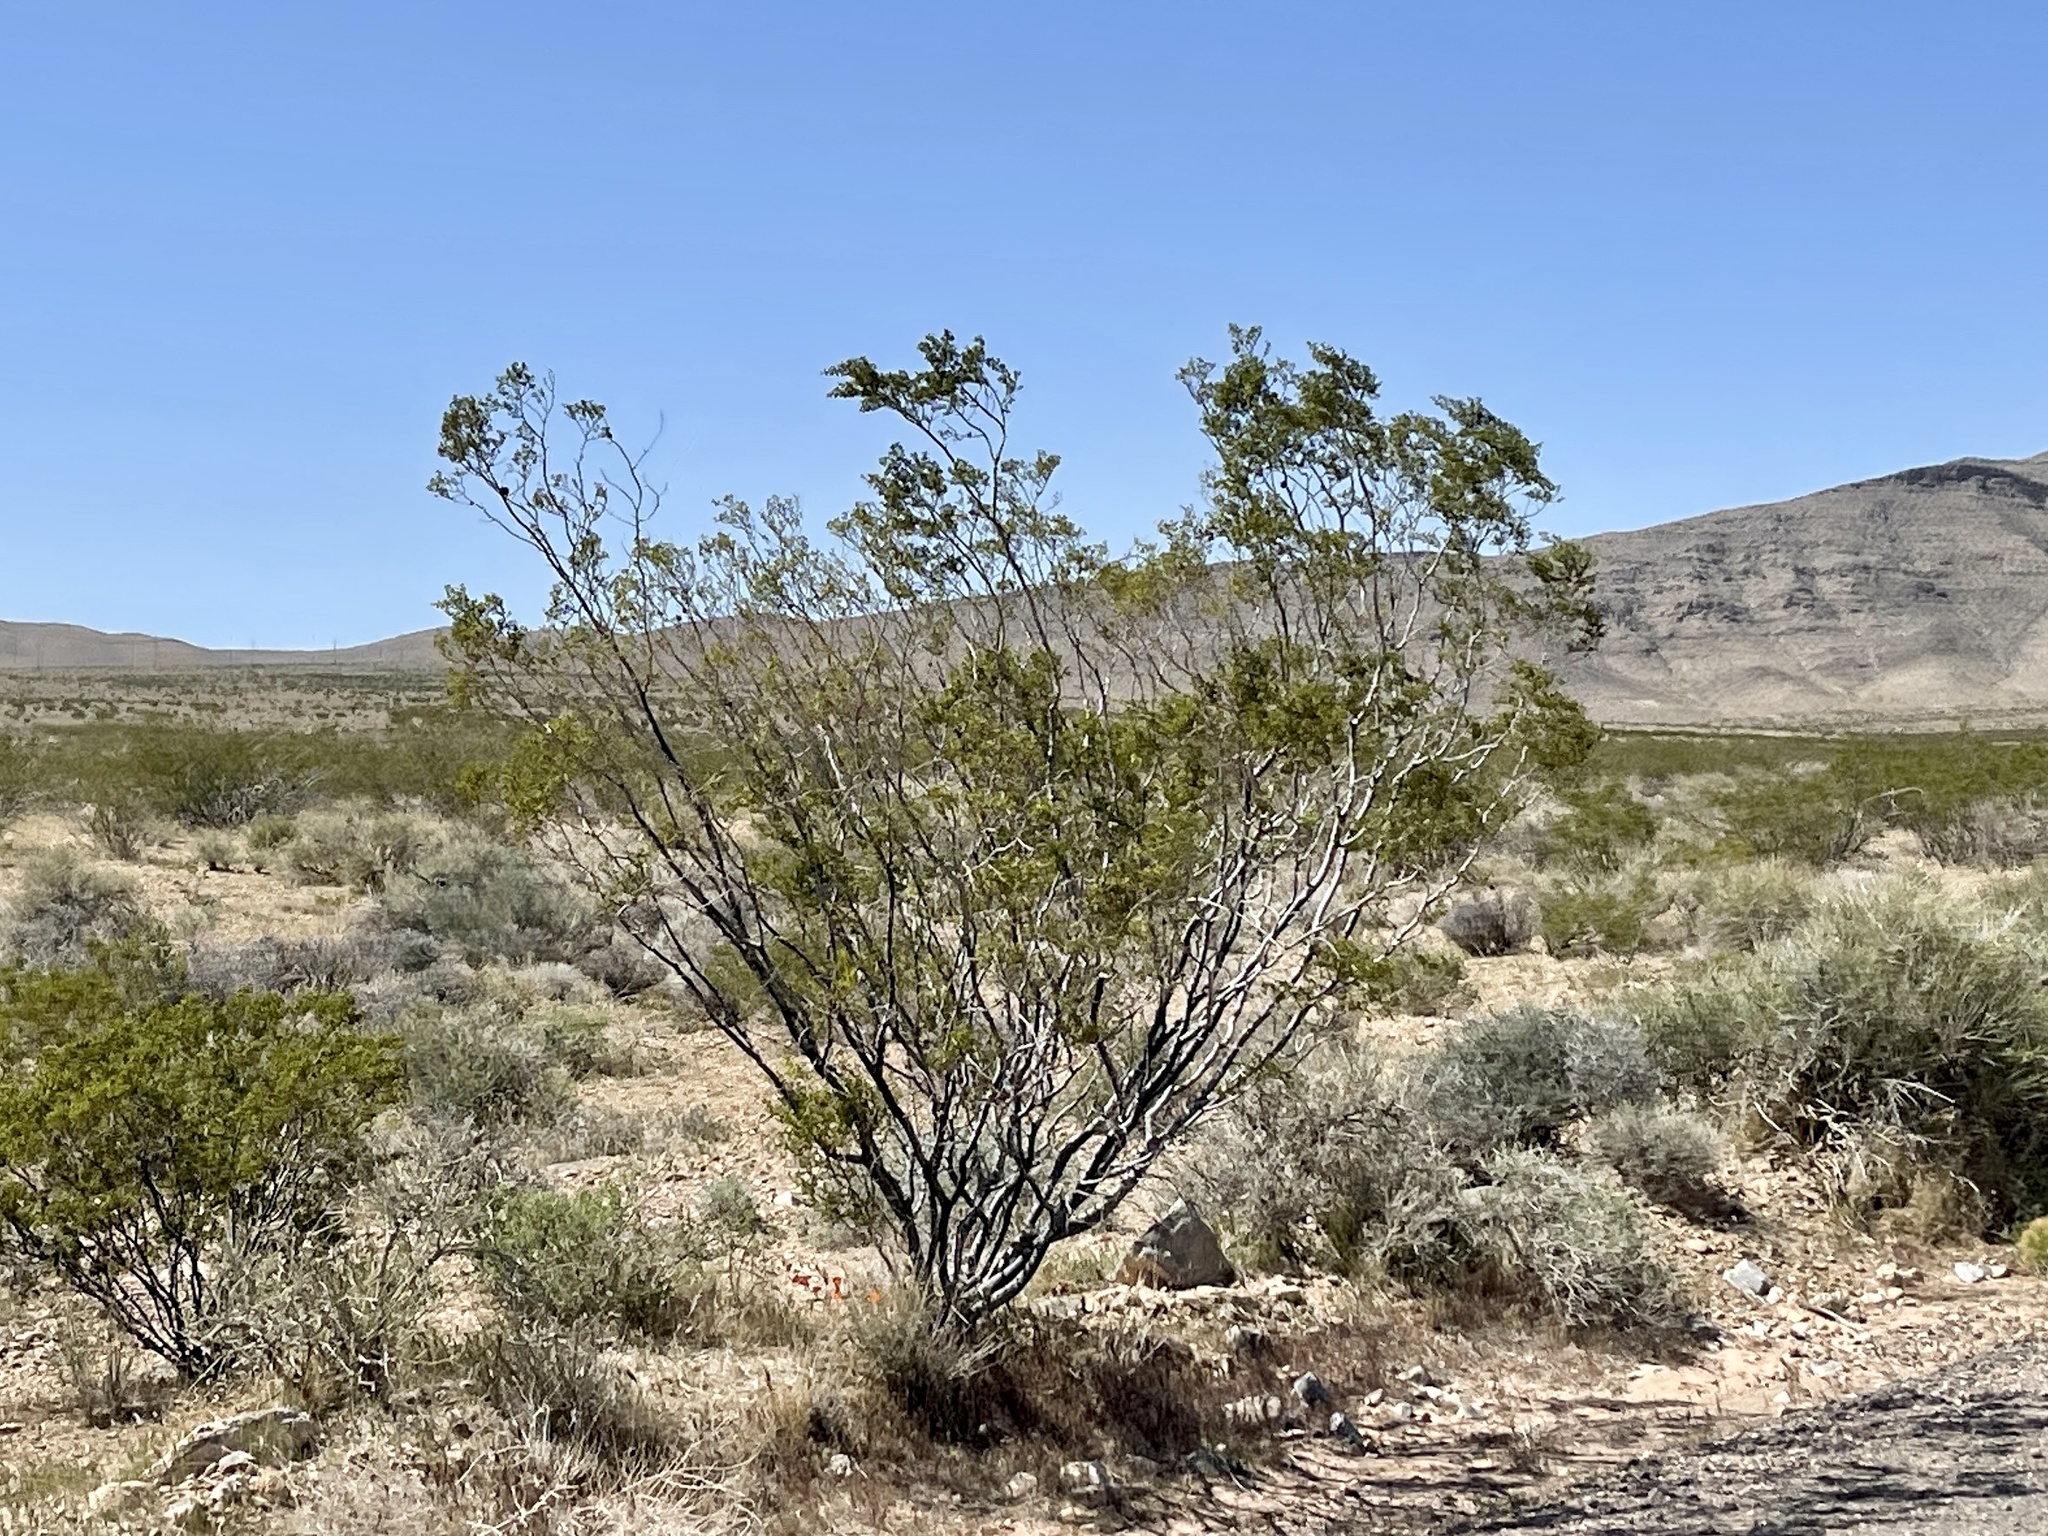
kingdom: Plantae
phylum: Tracheophyta
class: Magnoliopsida
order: Zygophyllales
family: Zygophyllaceae
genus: Larrea
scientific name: Larrea tridentata
